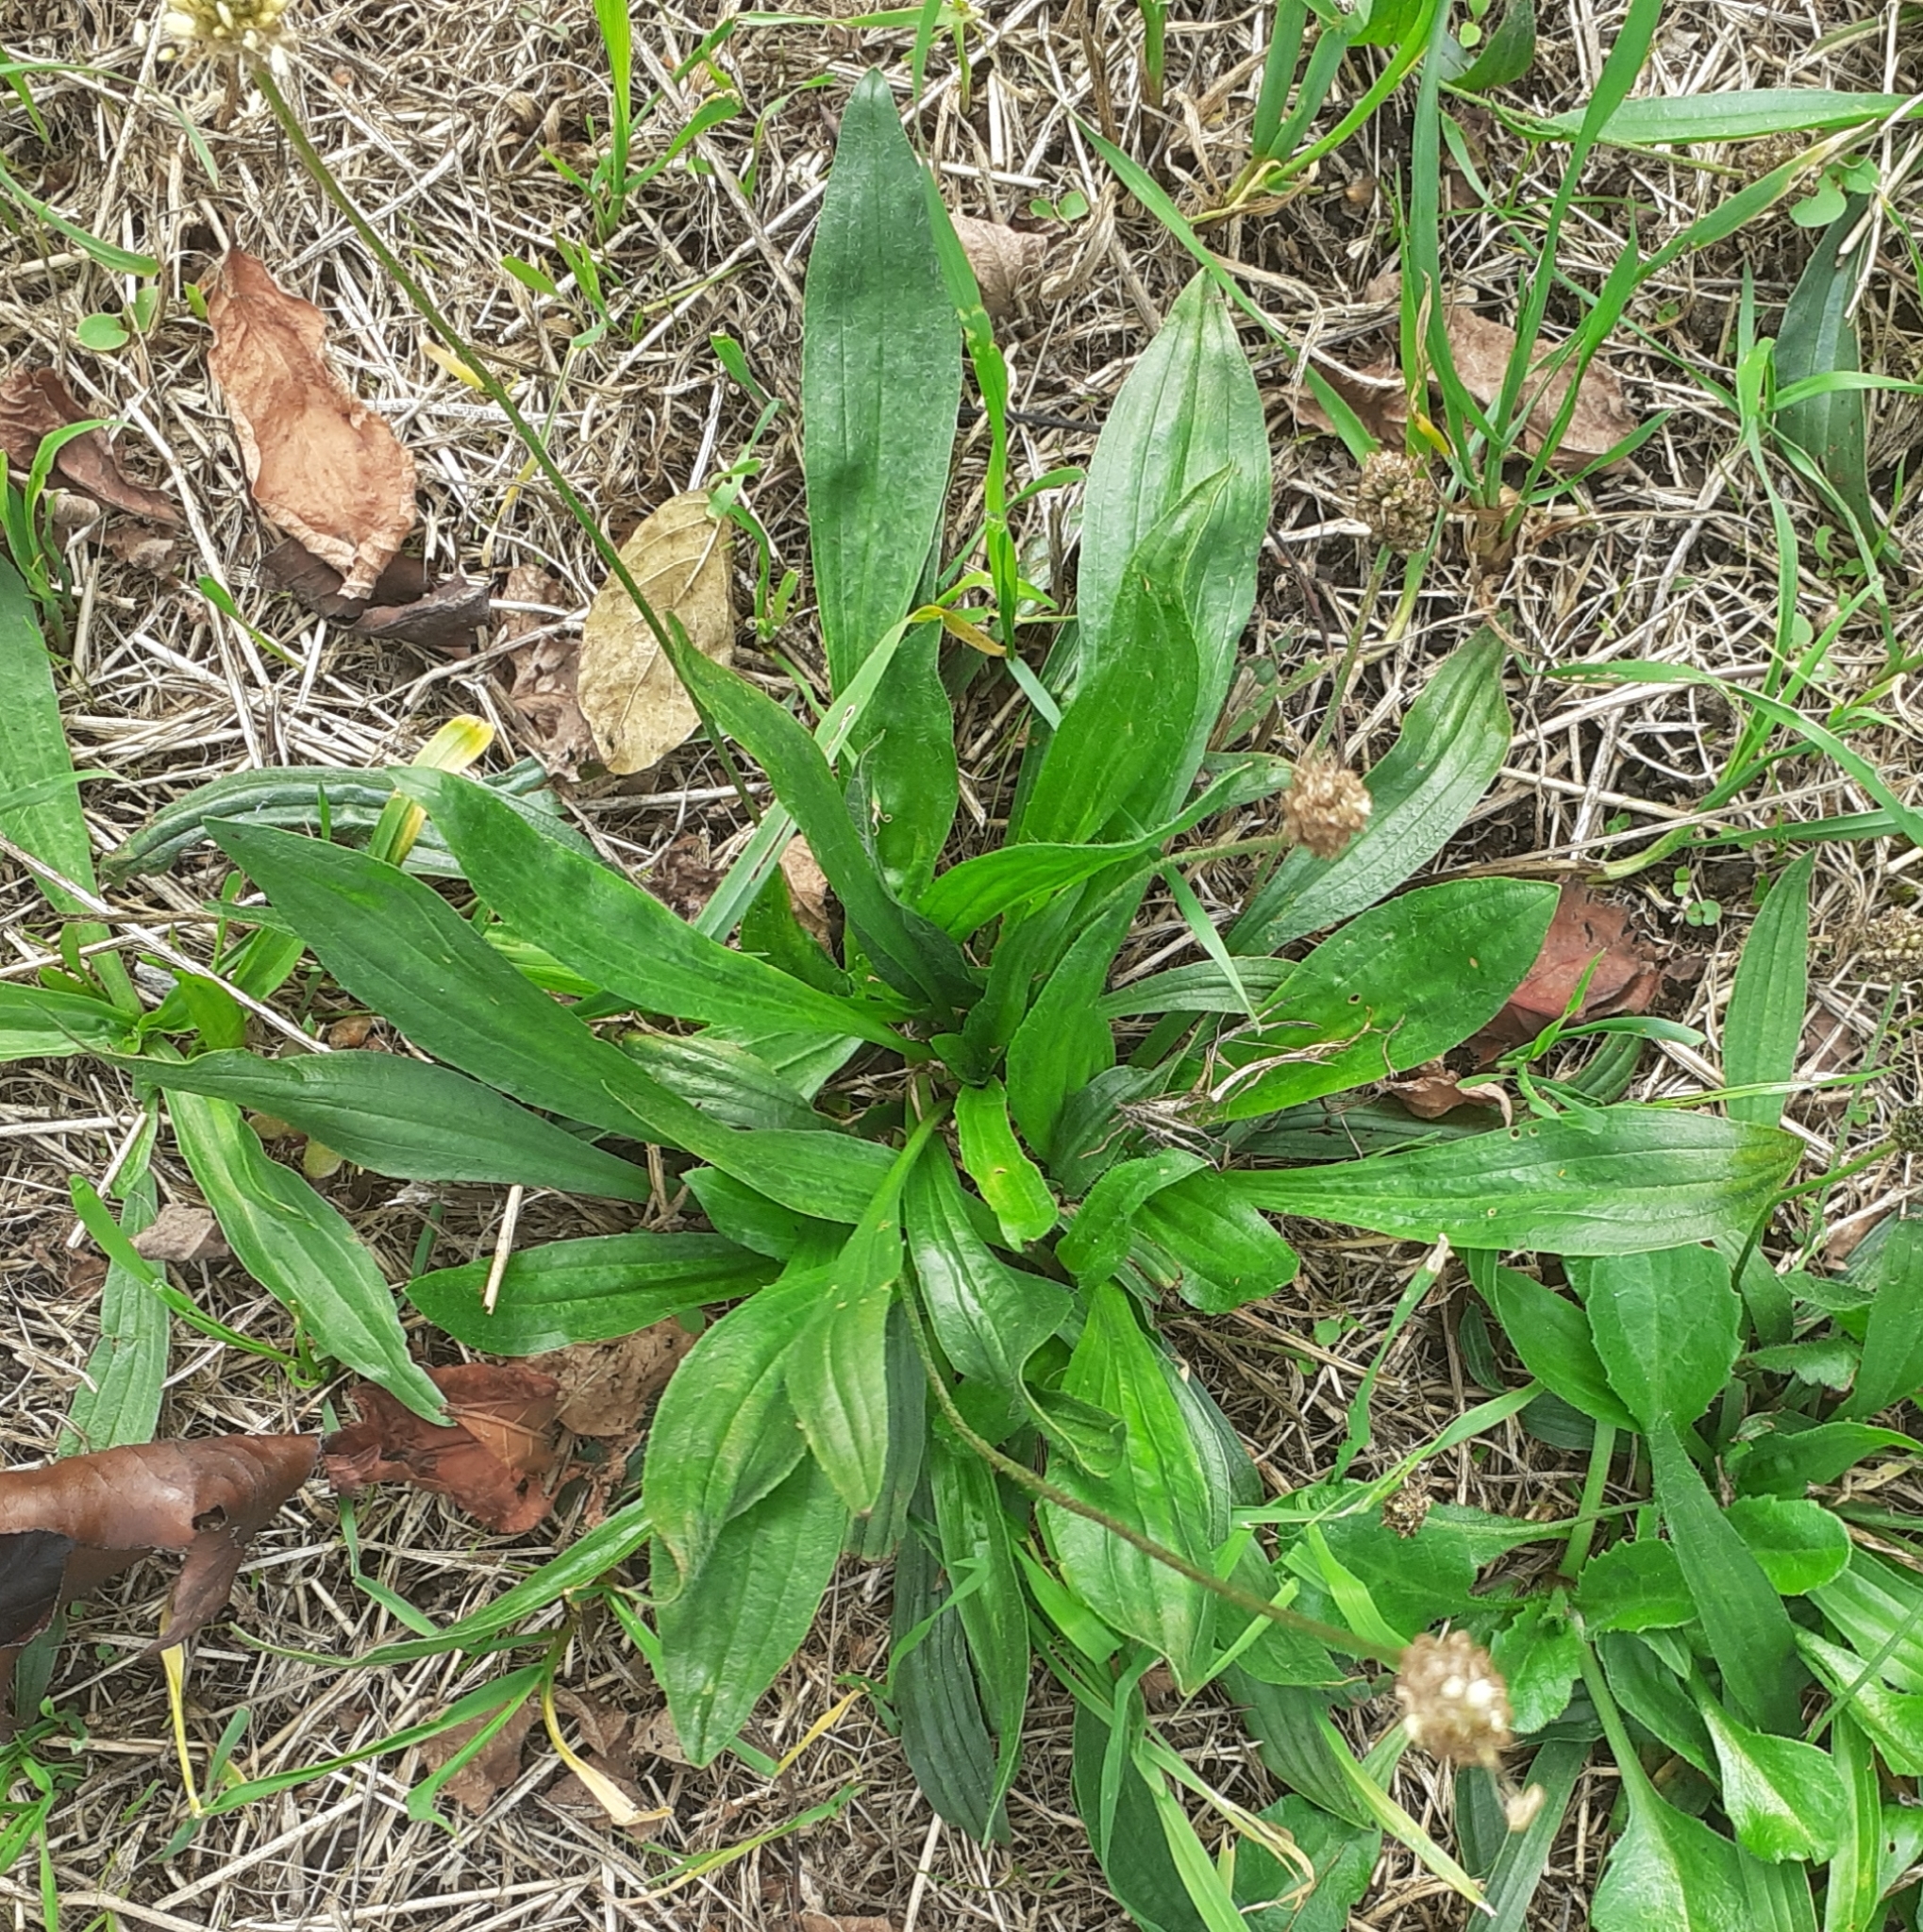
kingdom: Plantae
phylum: Tracheophyta
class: Magnoliopsida
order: Lamiales
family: Plantaginaceae
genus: Plantago
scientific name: Plantago lanceolata
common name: Ribwort plantain
